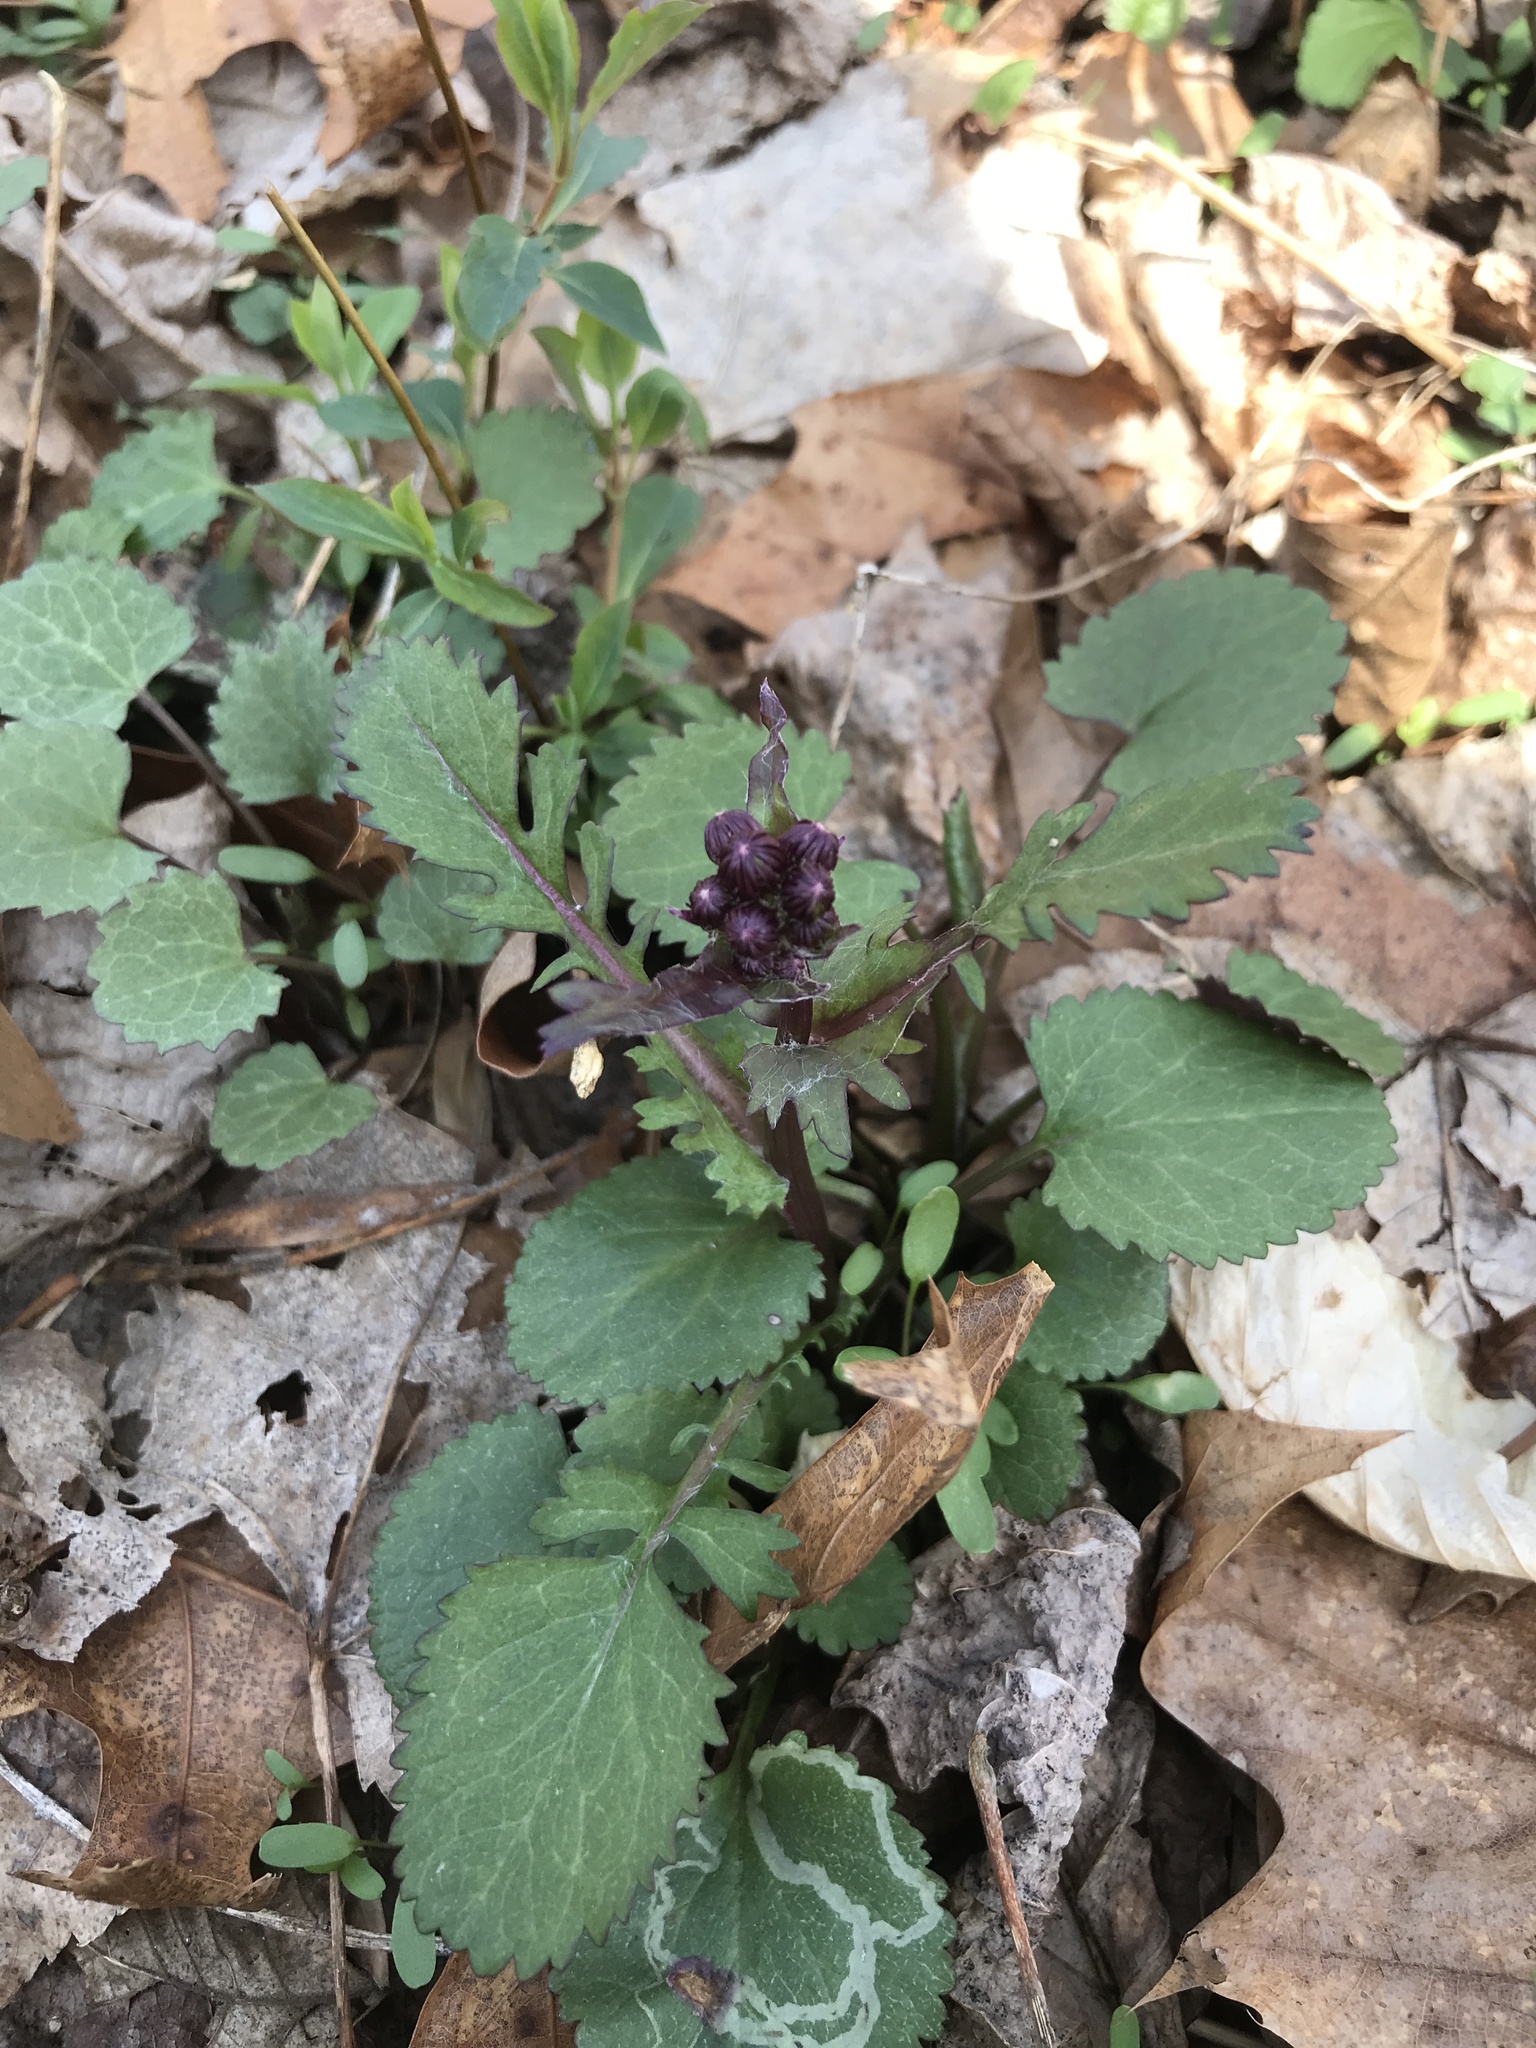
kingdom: Plantae
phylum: Tracheophyta
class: Magnoliopsida
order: Asterales
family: Asteraceae
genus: Packera
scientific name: Packera aurea
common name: Golden groundsel
